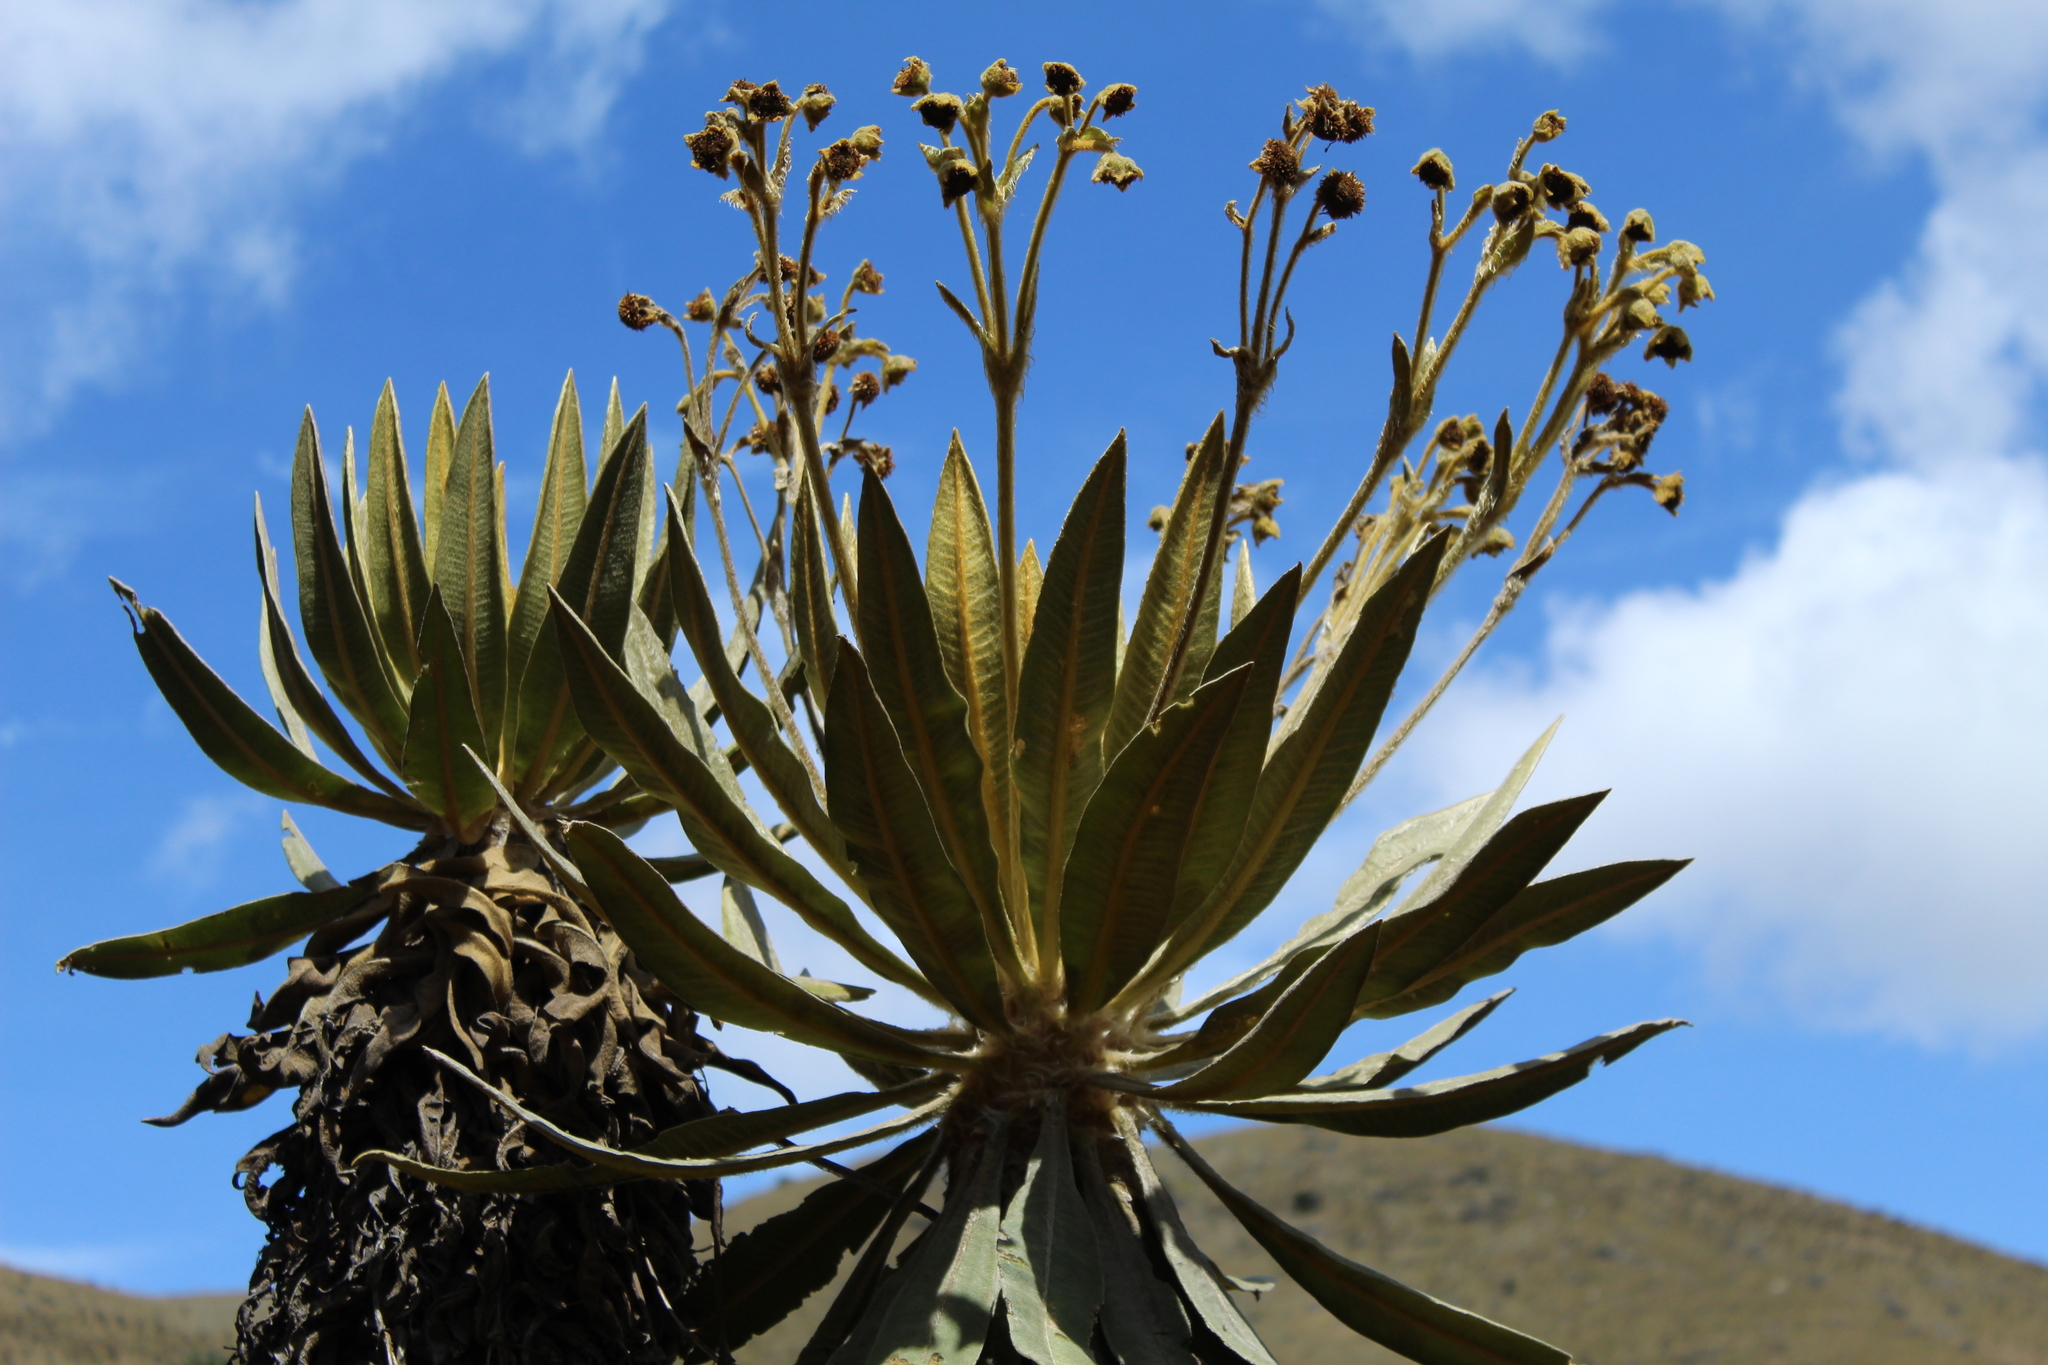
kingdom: Plantae
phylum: Tracheophyta
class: Magnoliopsida
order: Asterales
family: Asteraceae
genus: Espeletia
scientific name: Espeletia murilloi
